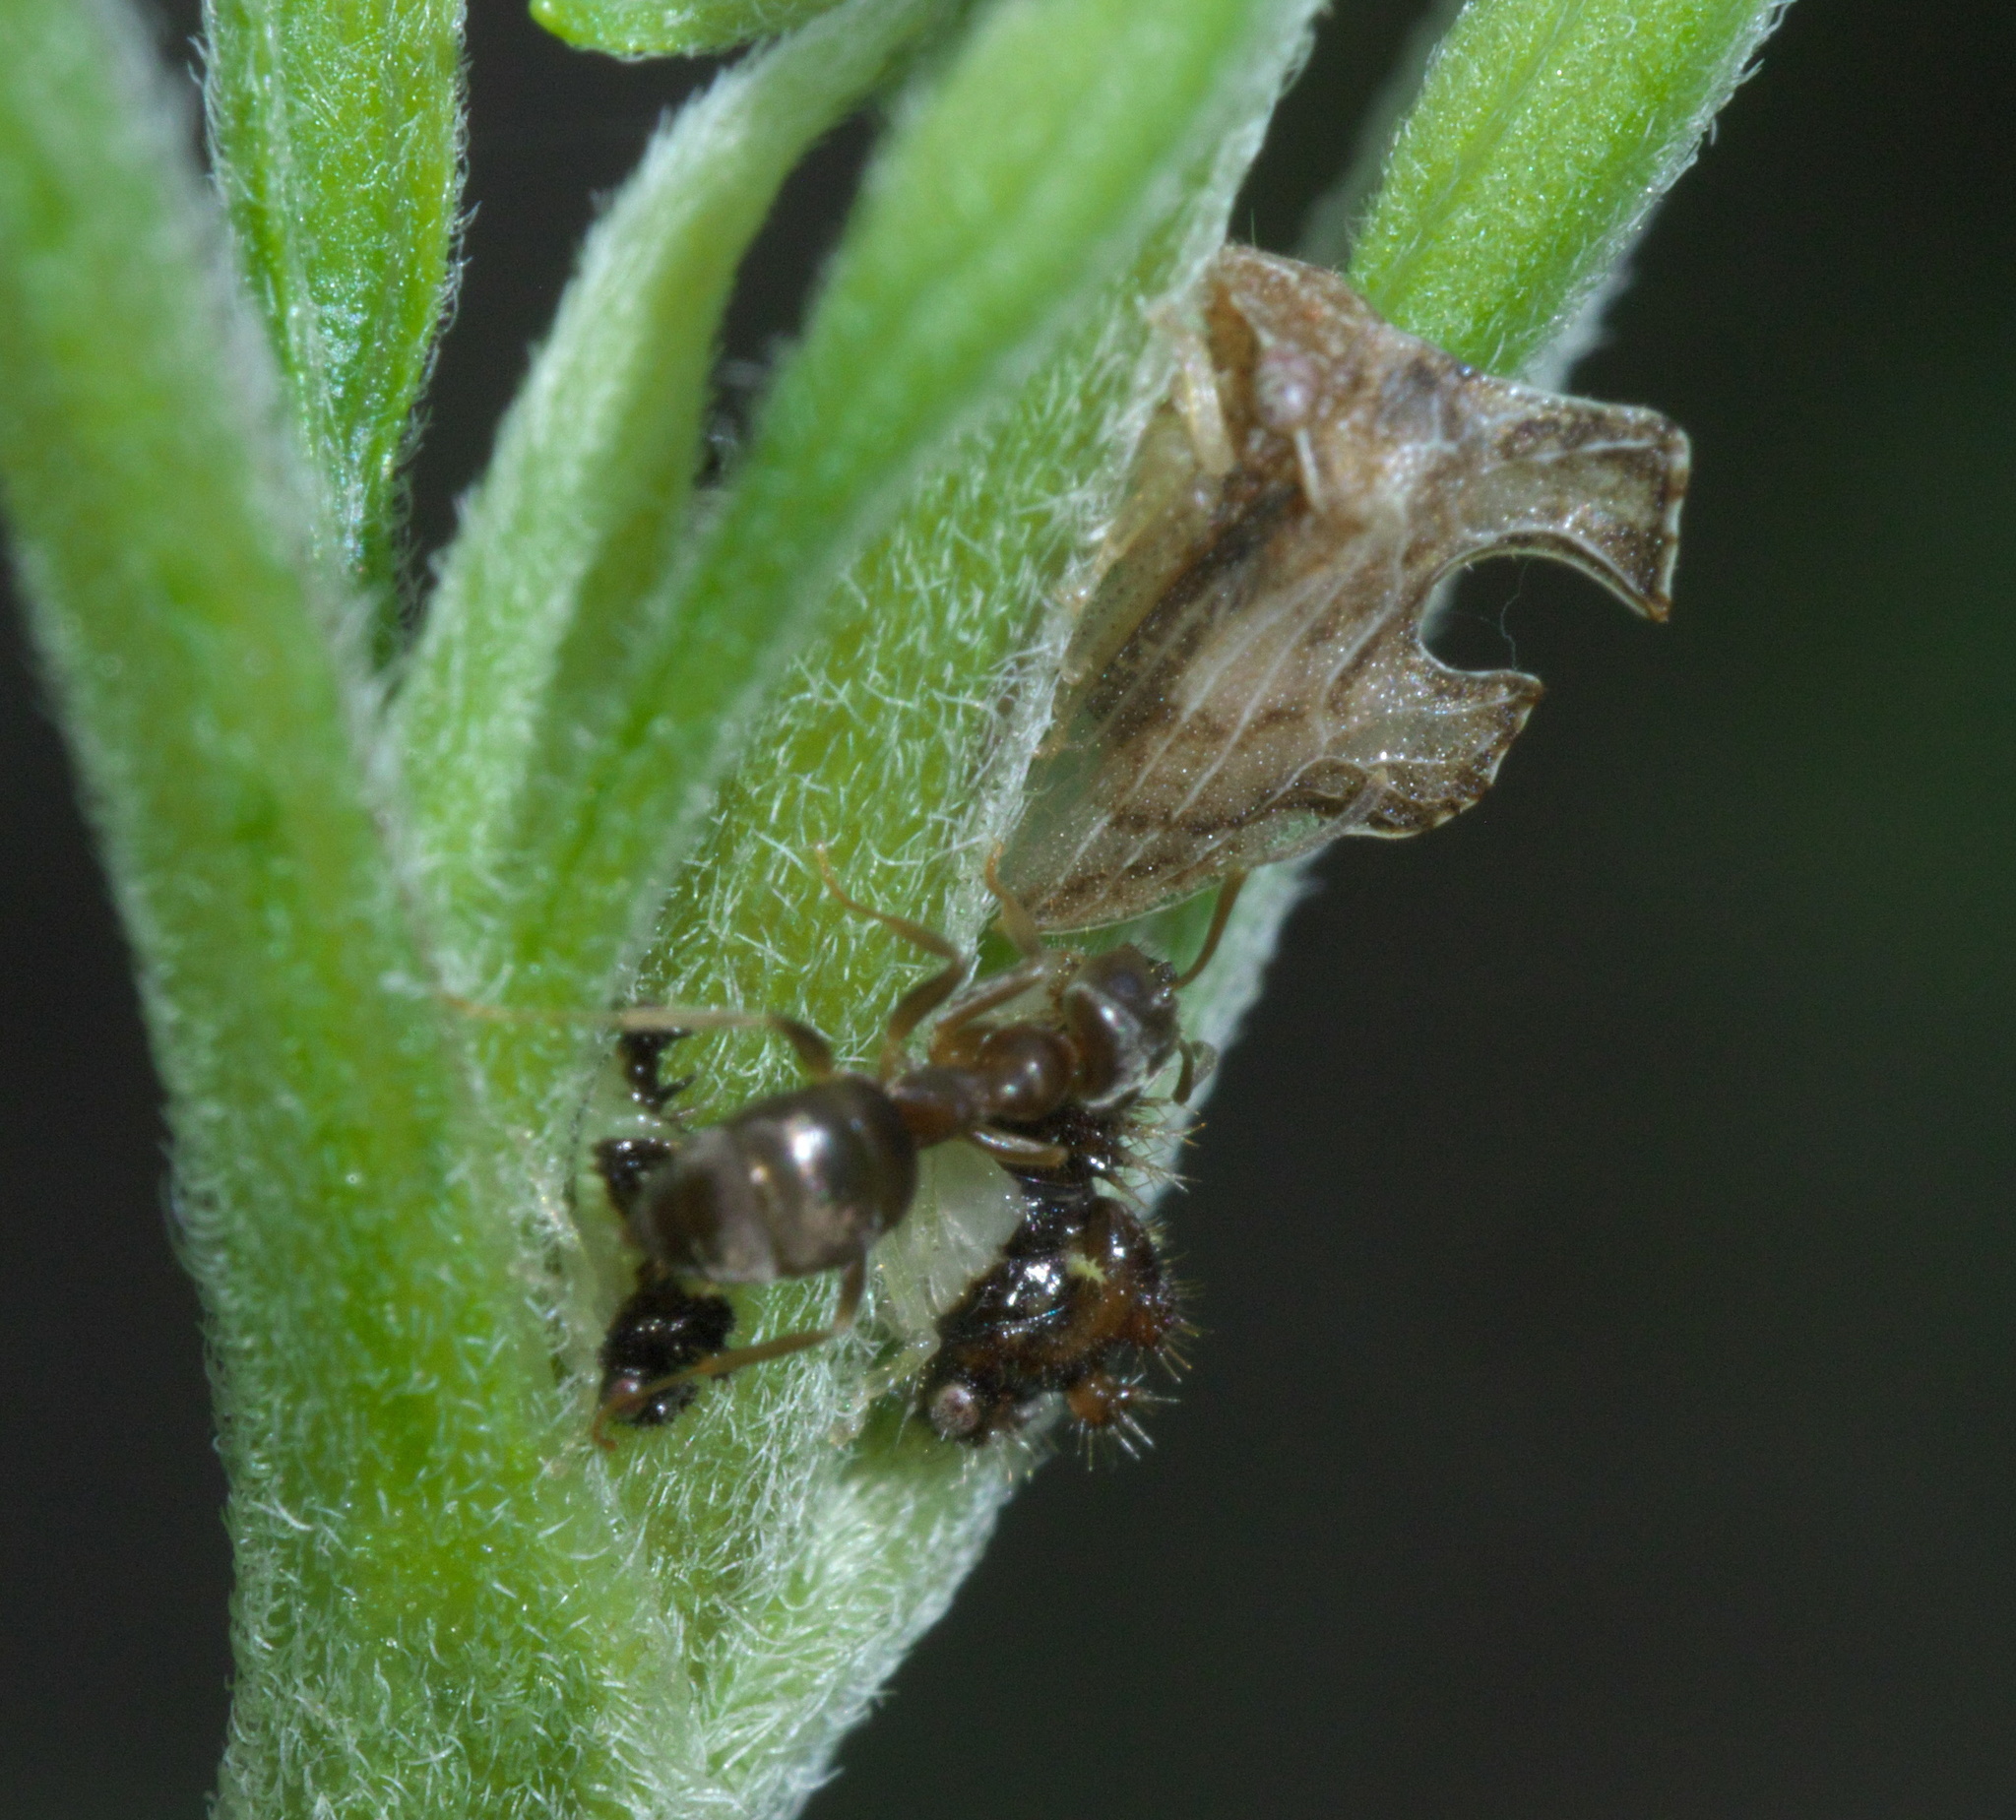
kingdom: Animalia
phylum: Arthropoda
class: Insecta
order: Hemiptera
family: Membracidae
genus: Entylia
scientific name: Entylia carinata
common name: Keeled treehopper
